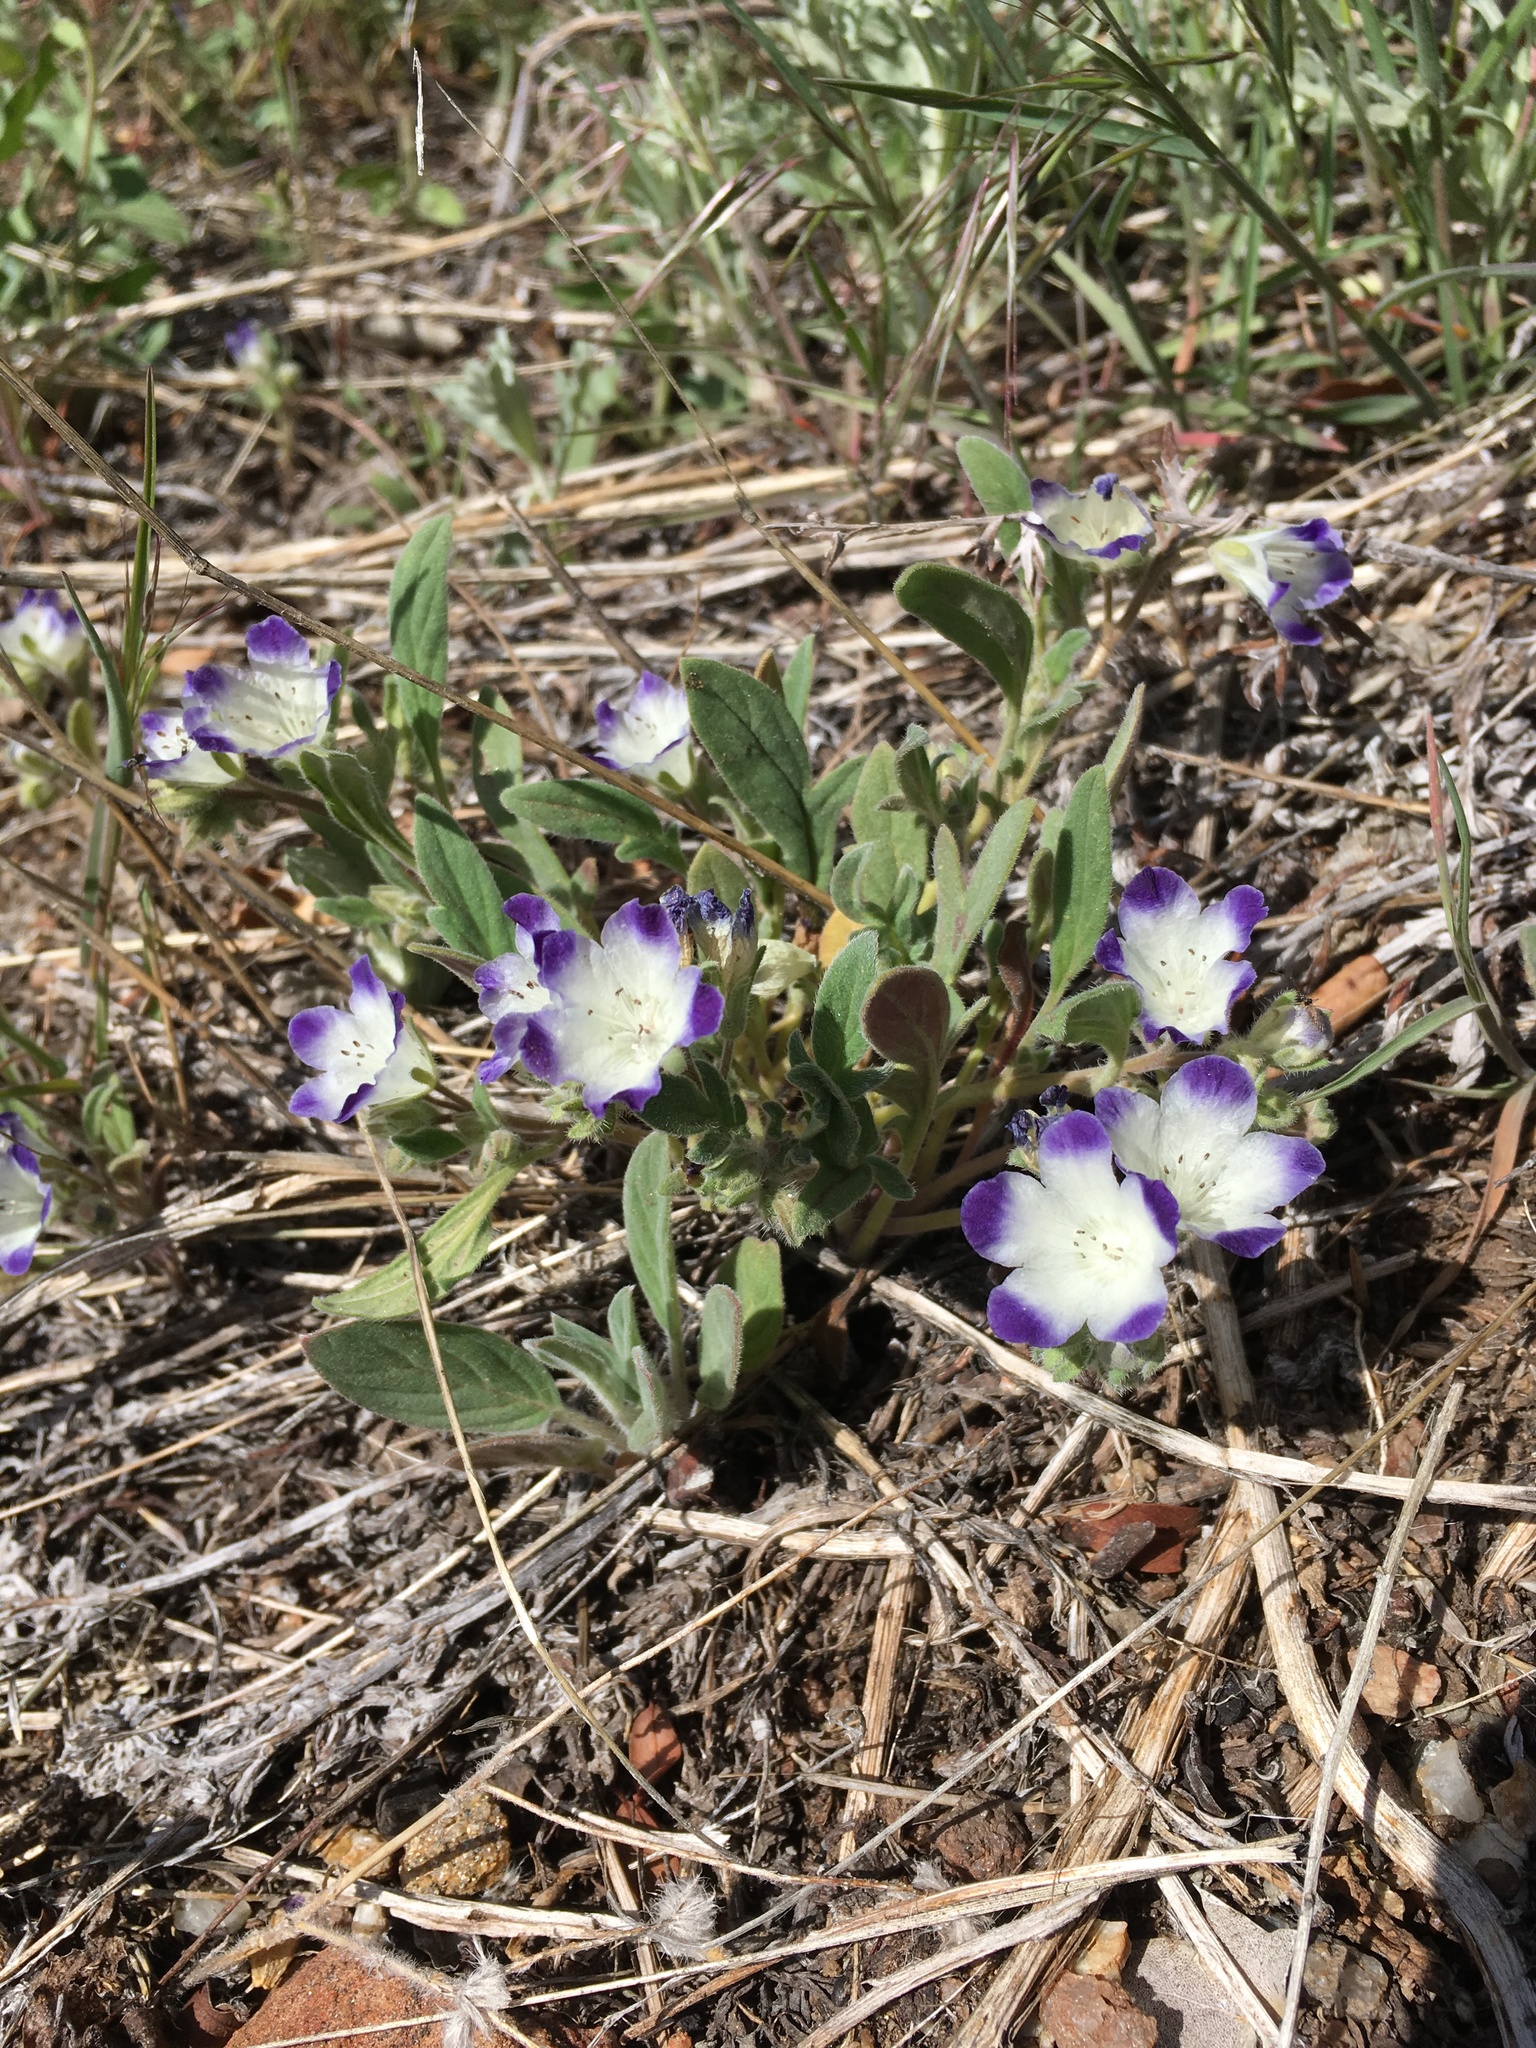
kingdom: Plantae
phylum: Tracheophyta
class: Magnoliopsida
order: Boraginales
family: Hydrophyllaceae
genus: Phacelia
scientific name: Phacelia davidsonii
